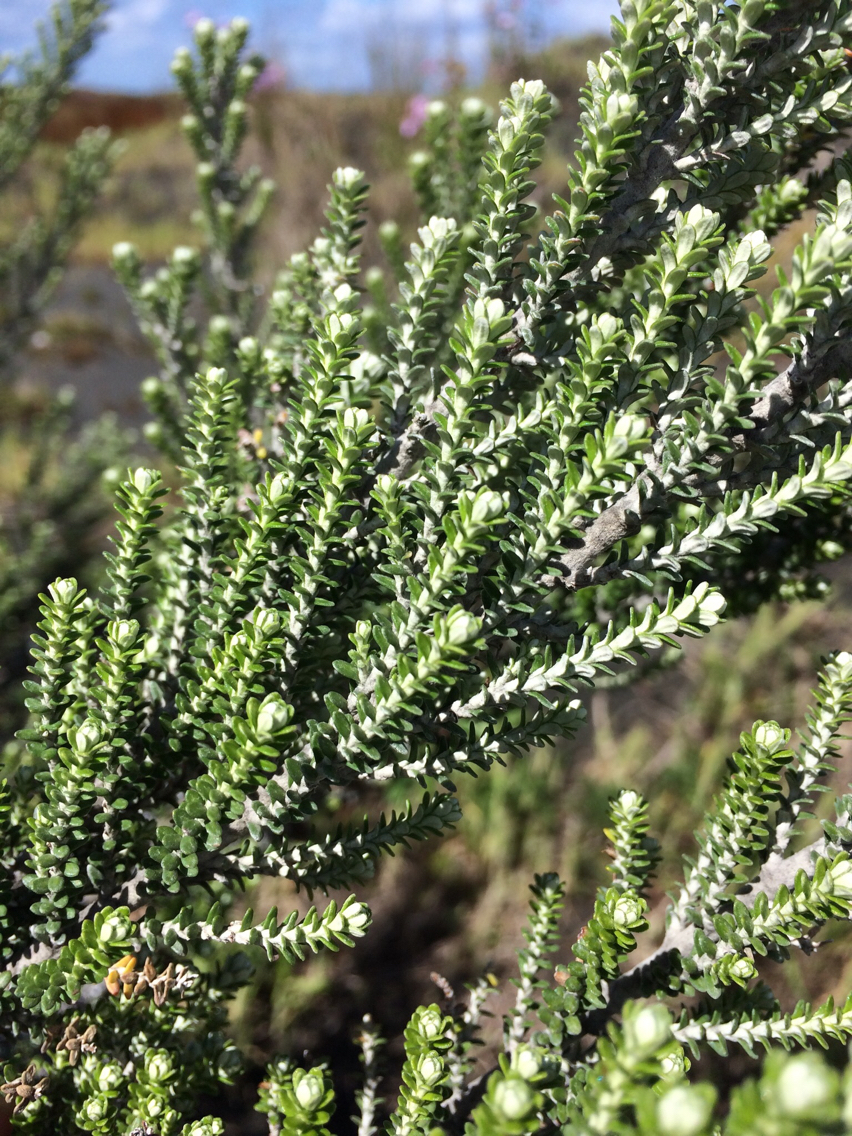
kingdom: Plantae
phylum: Tracheophyta
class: Magnoliopsida
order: Asterales
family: Asteraceae
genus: Ozothamnus
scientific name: Ozothamnus leptophyllus
